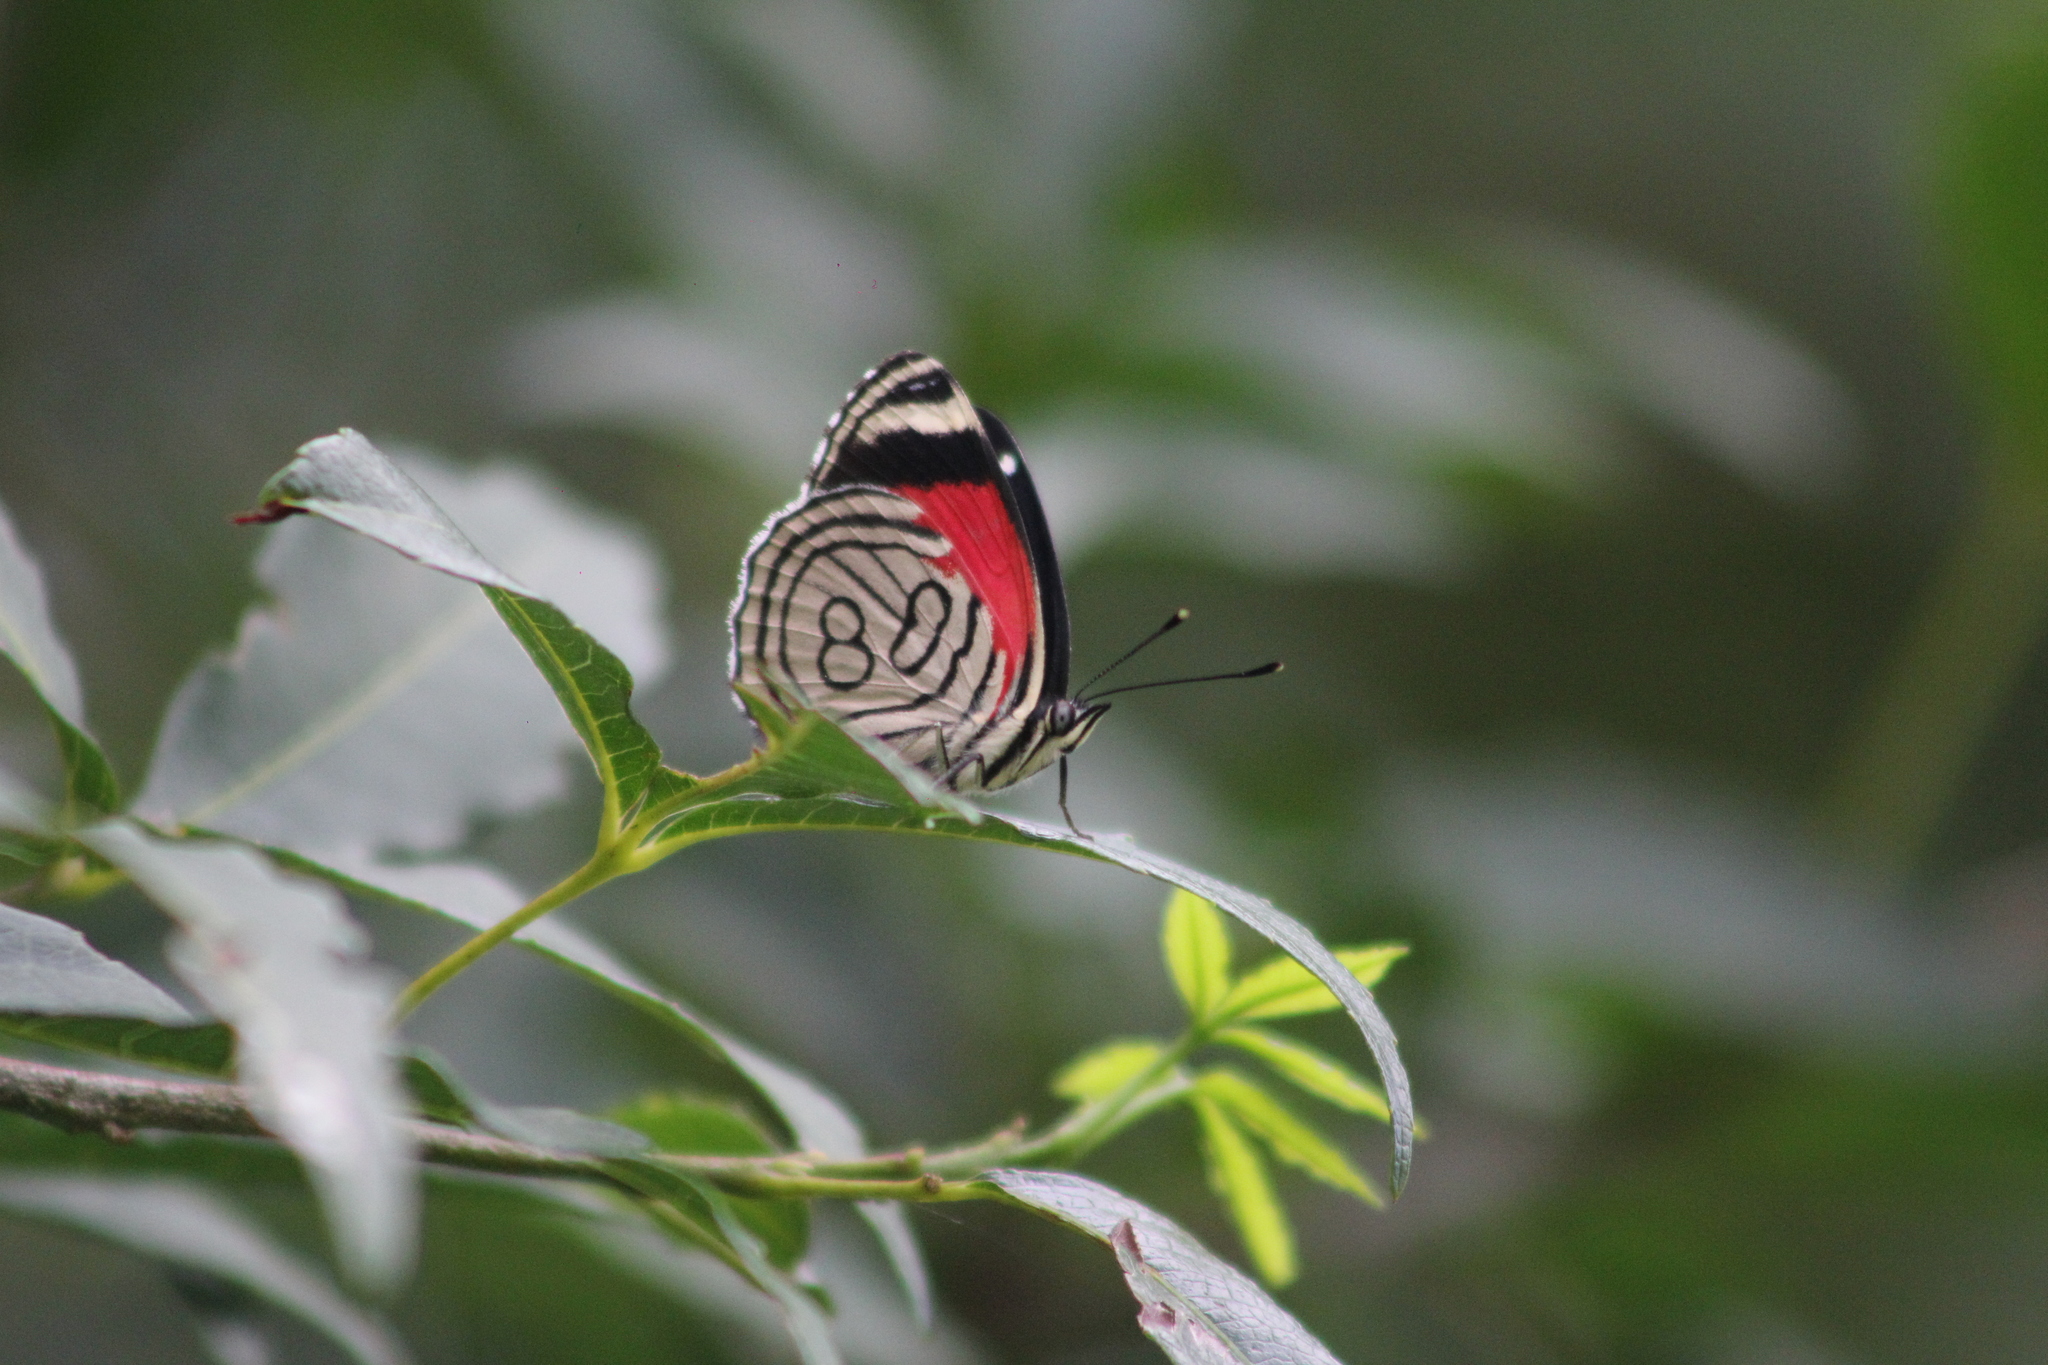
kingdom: Animalia
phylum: Arthropoda
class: Insecta
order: Lepidoptera
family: Nymphalidae
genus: Diaethria
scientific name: Diaethria candrena
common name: Number eighty
